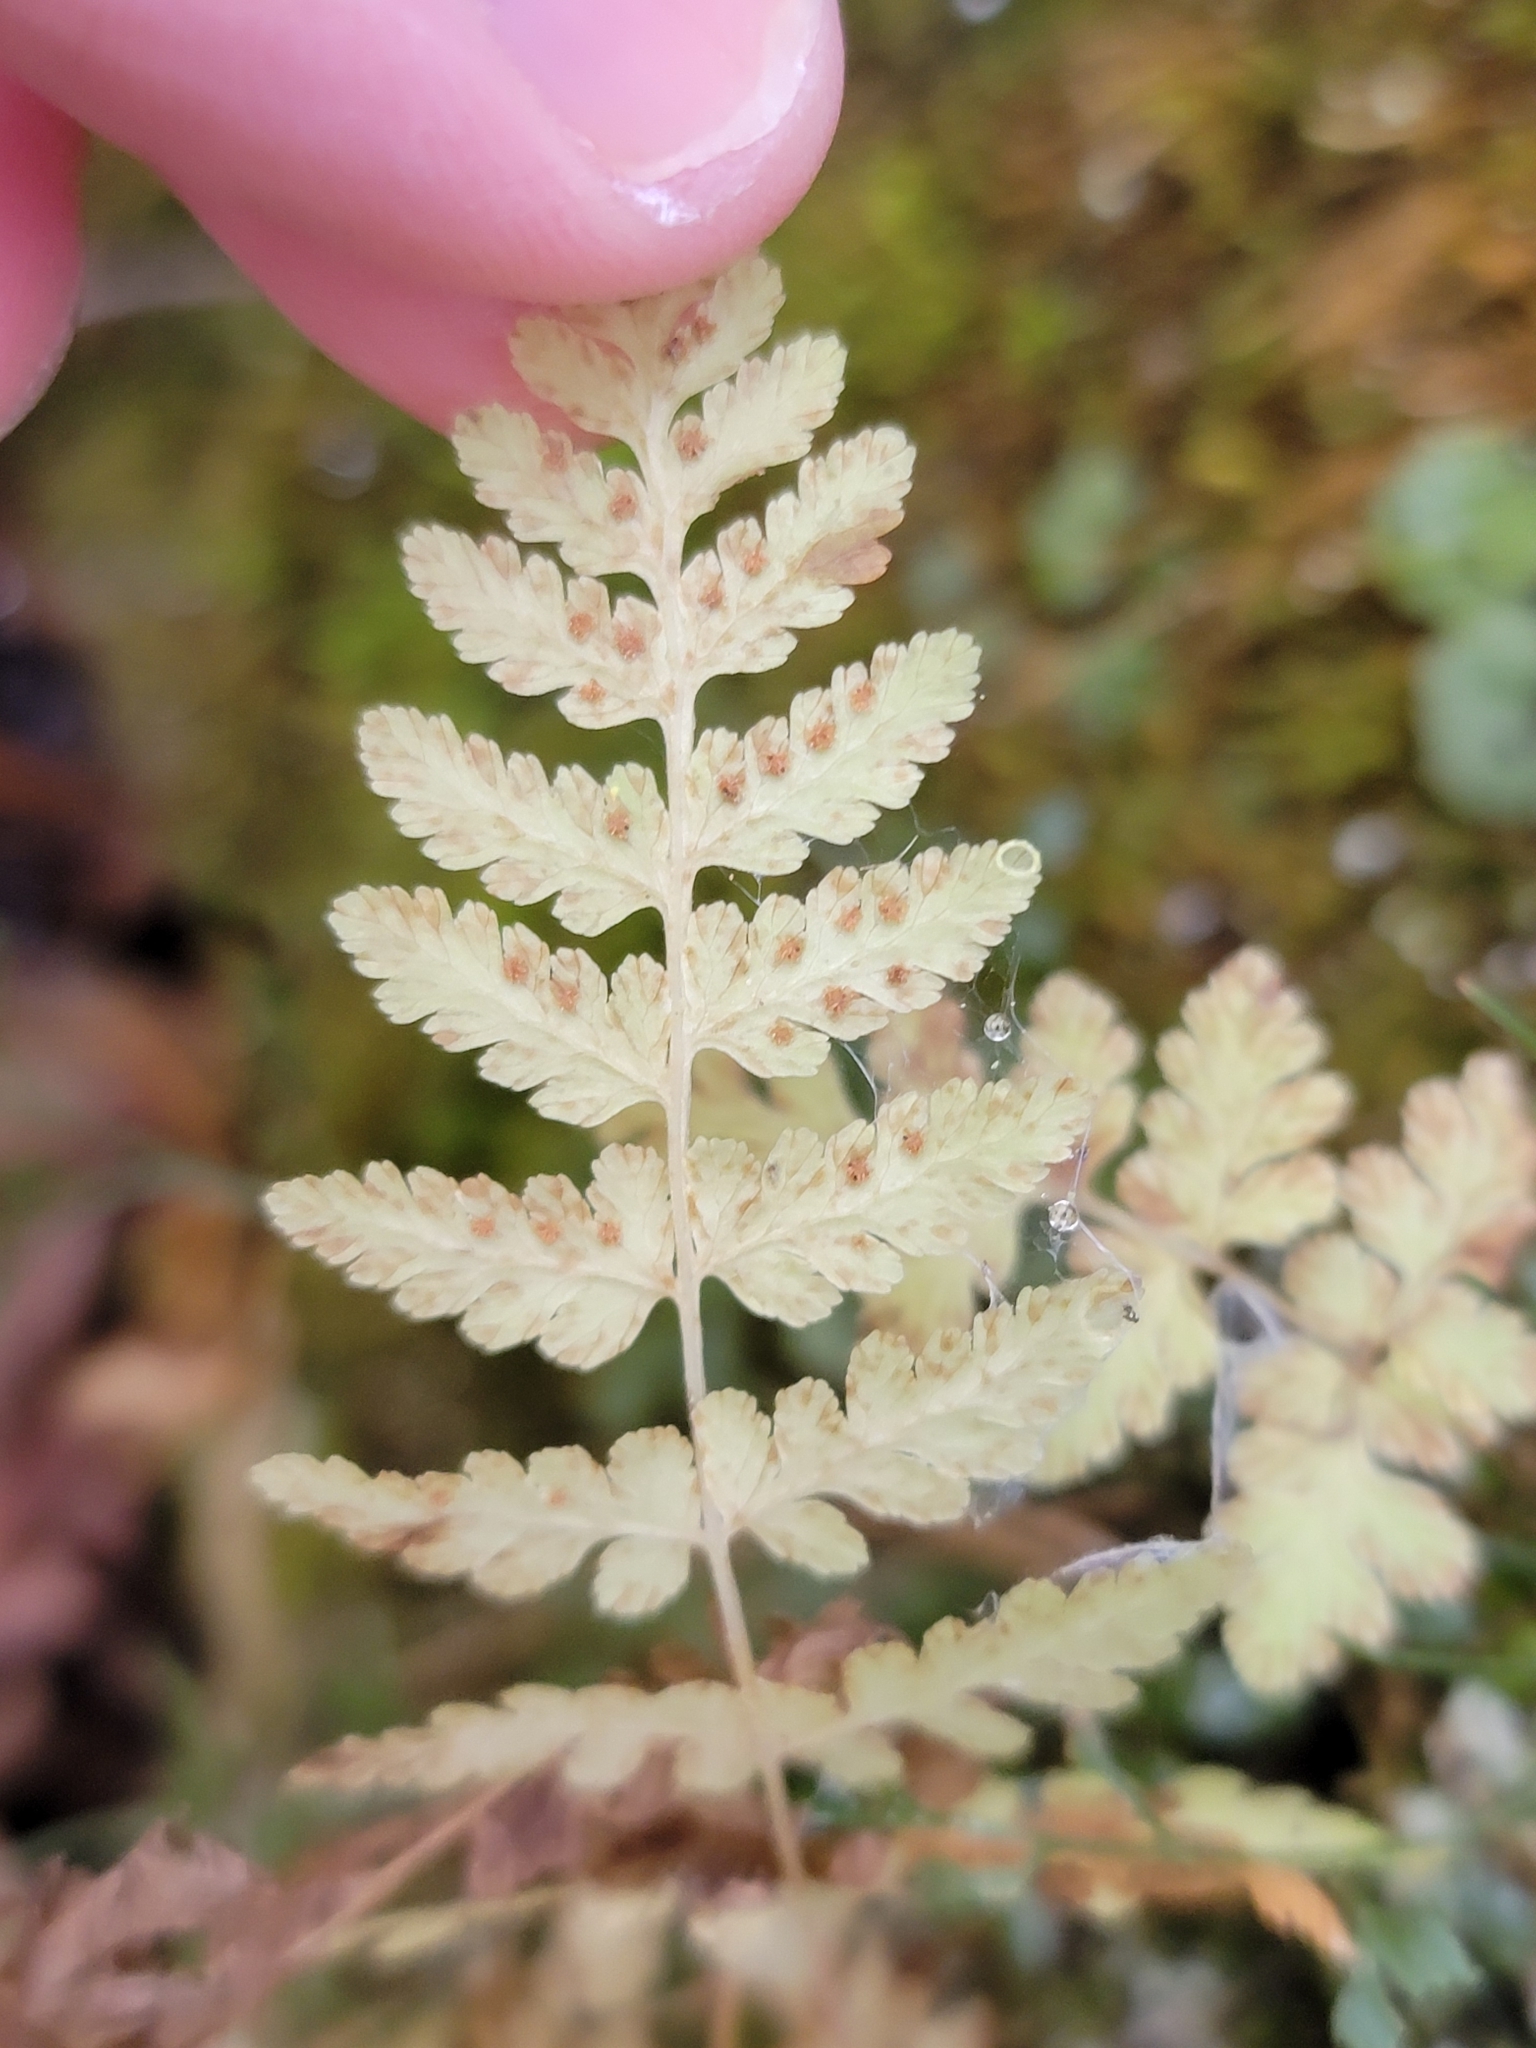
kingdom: Plantae
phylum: Tracheophyta
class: Polypodiopsida
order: Polypodiales
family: Cystopteridaceae
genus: Cystopteris
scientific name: Cystopteris bulbifera
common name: Bulblet bladder fern
